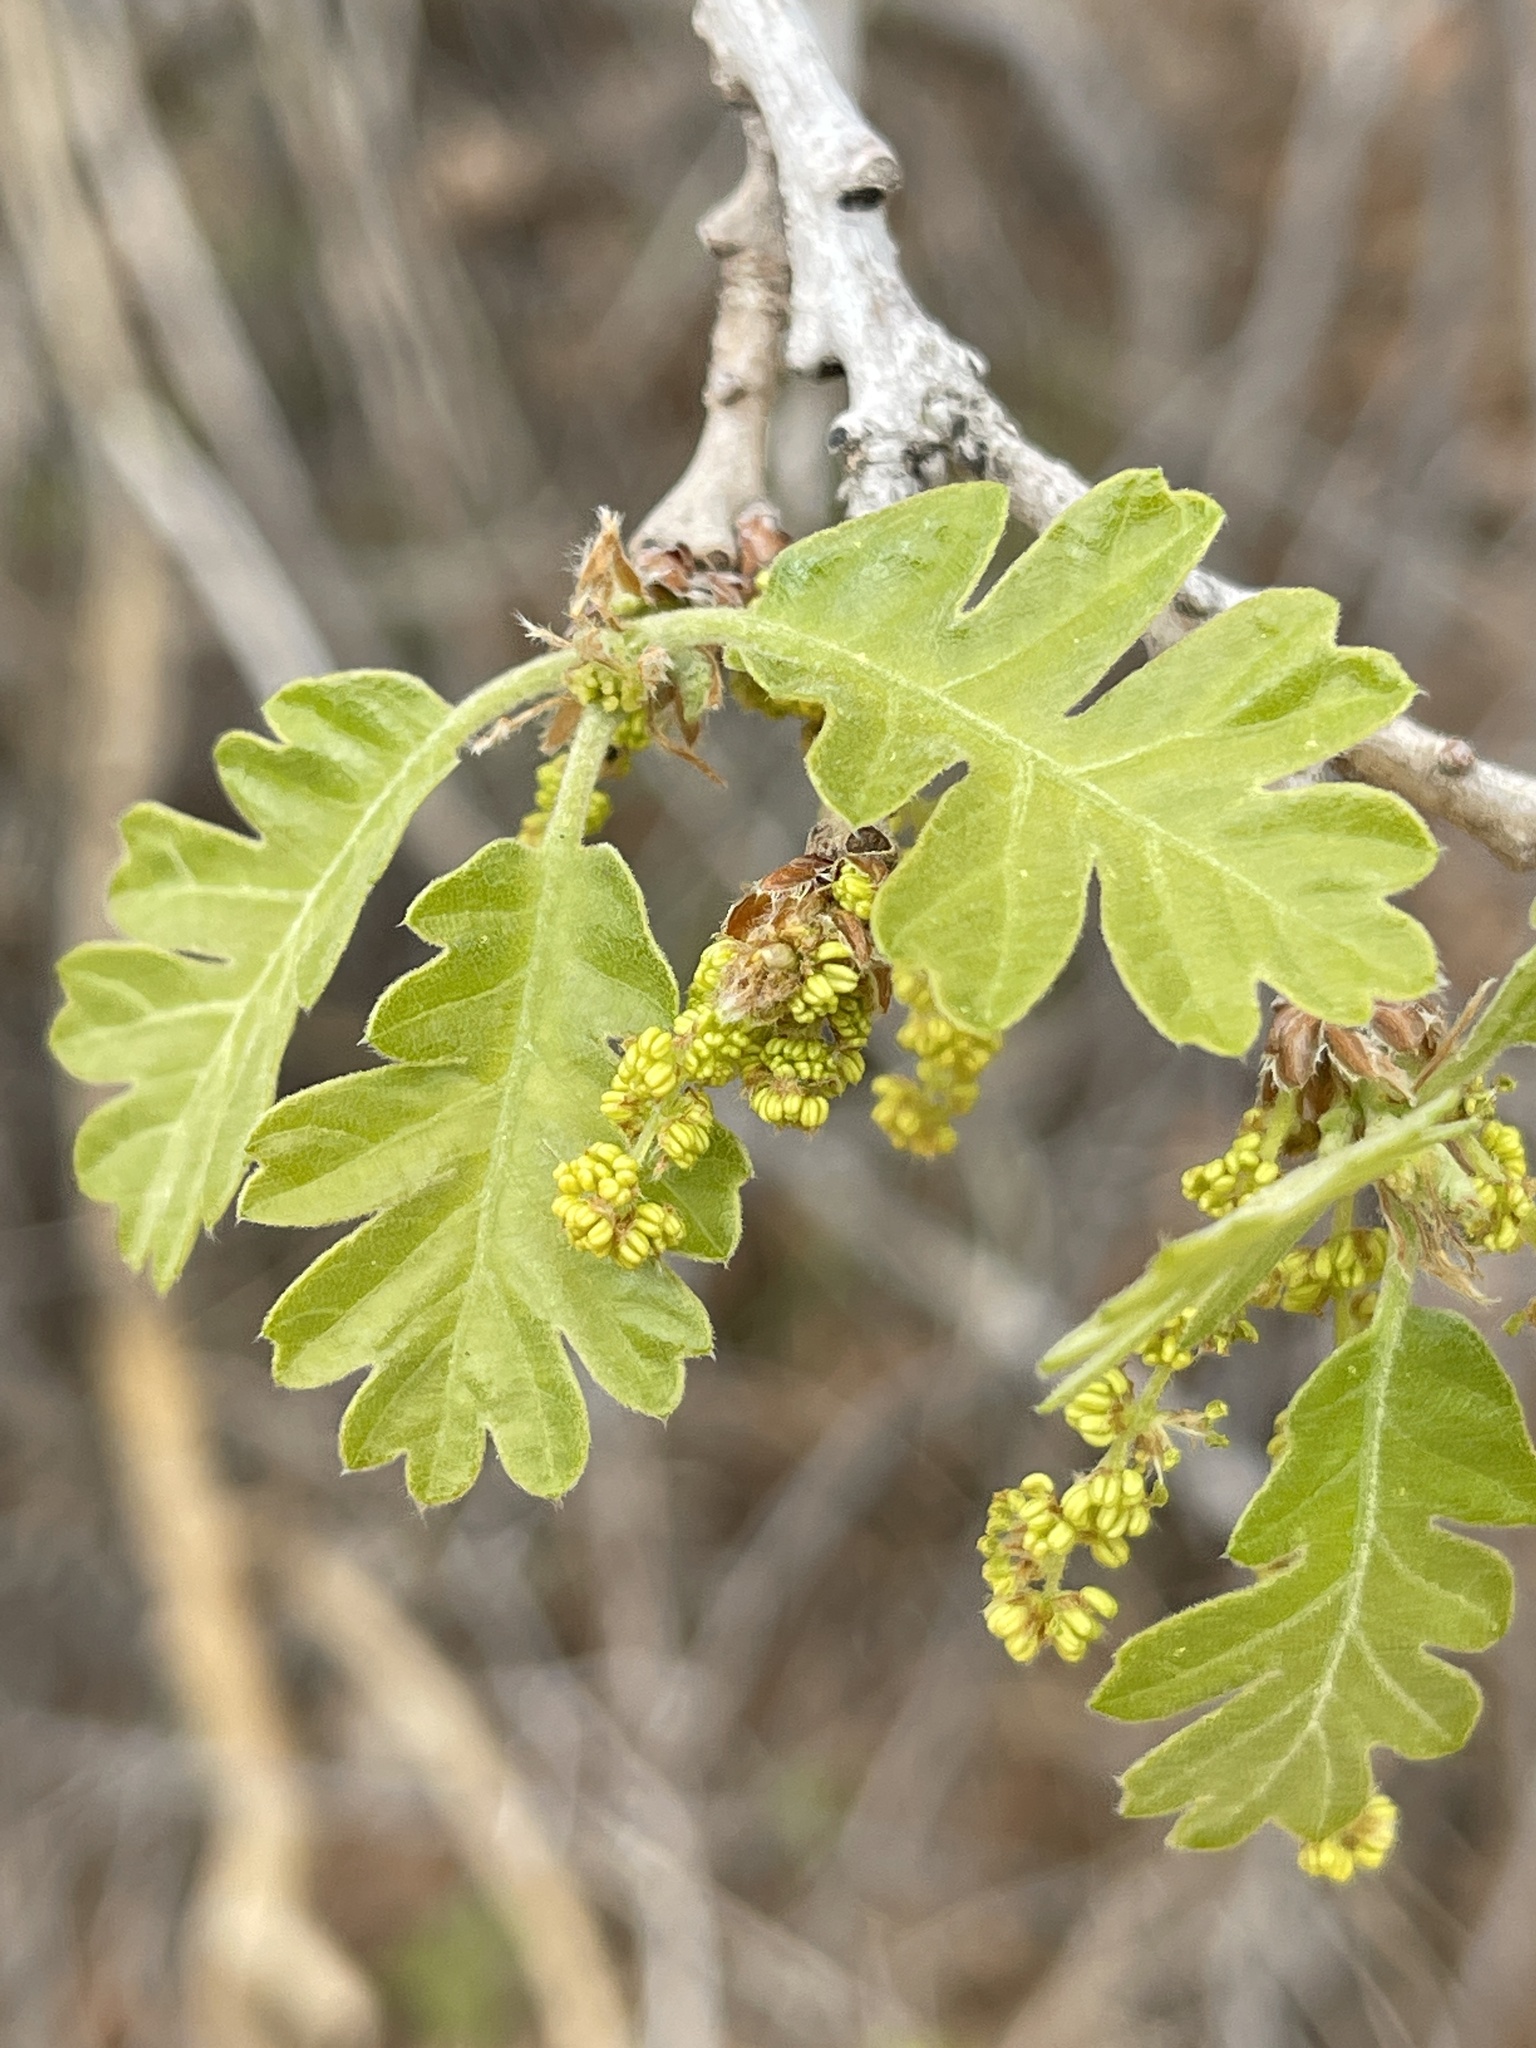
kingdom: Plantae
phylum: Tracheophyta
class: Magnoliopsida
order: Fagales
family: Fagaceae
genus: Quercus
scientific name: Quercus gambelii
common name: Gambel oak
